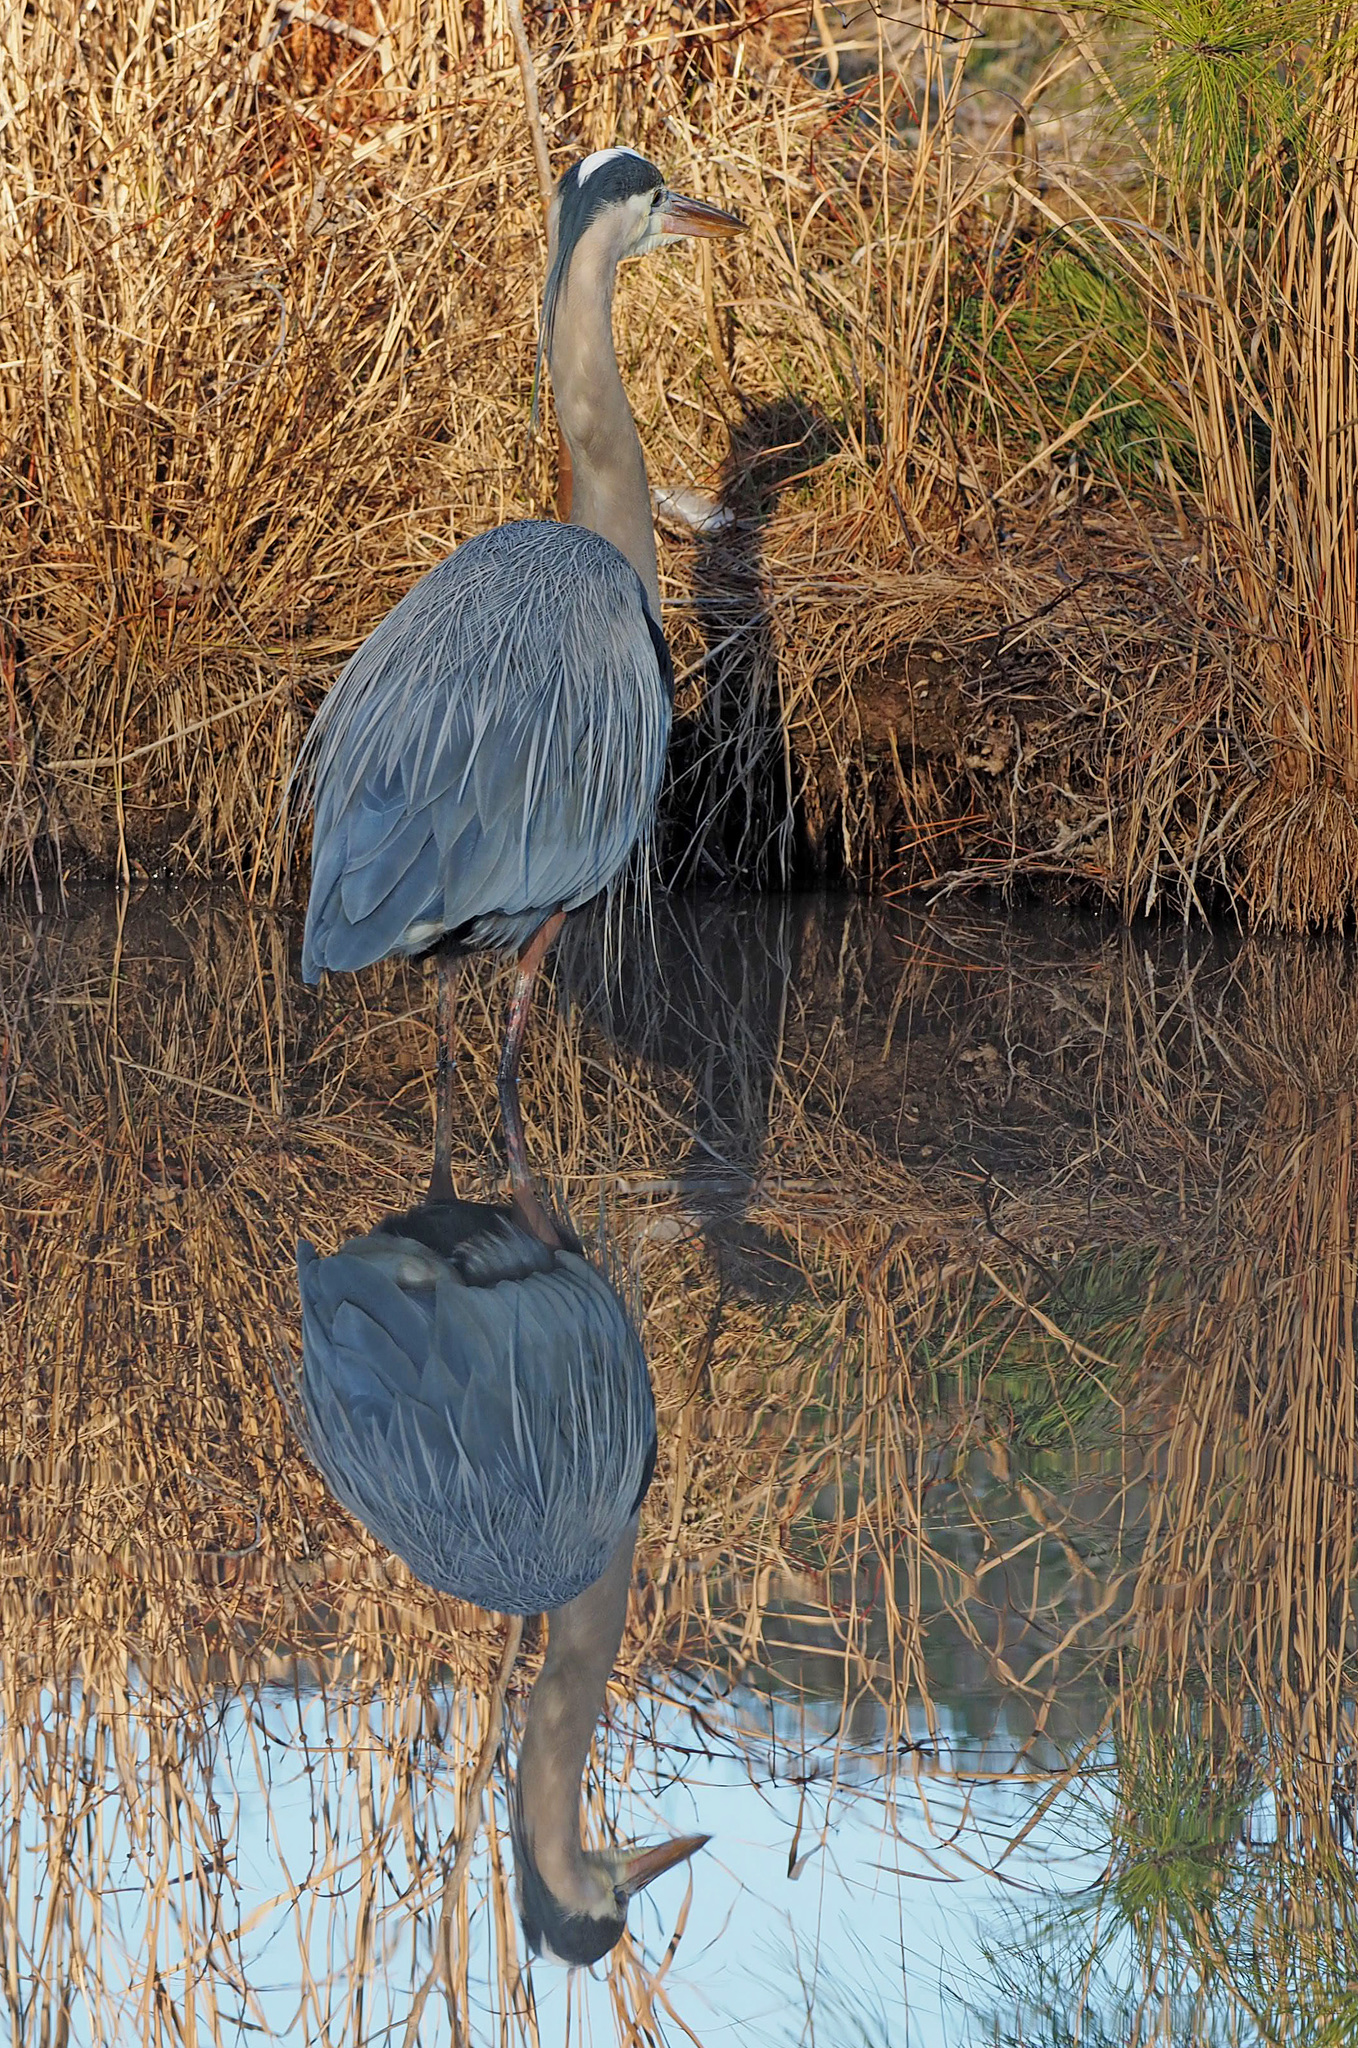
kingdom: Animalia
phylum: Chordata
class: Aves
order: Pelecaniformes
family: Ardeidae
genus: Ardea
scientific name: Ardea herodias
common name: Great blue heron
